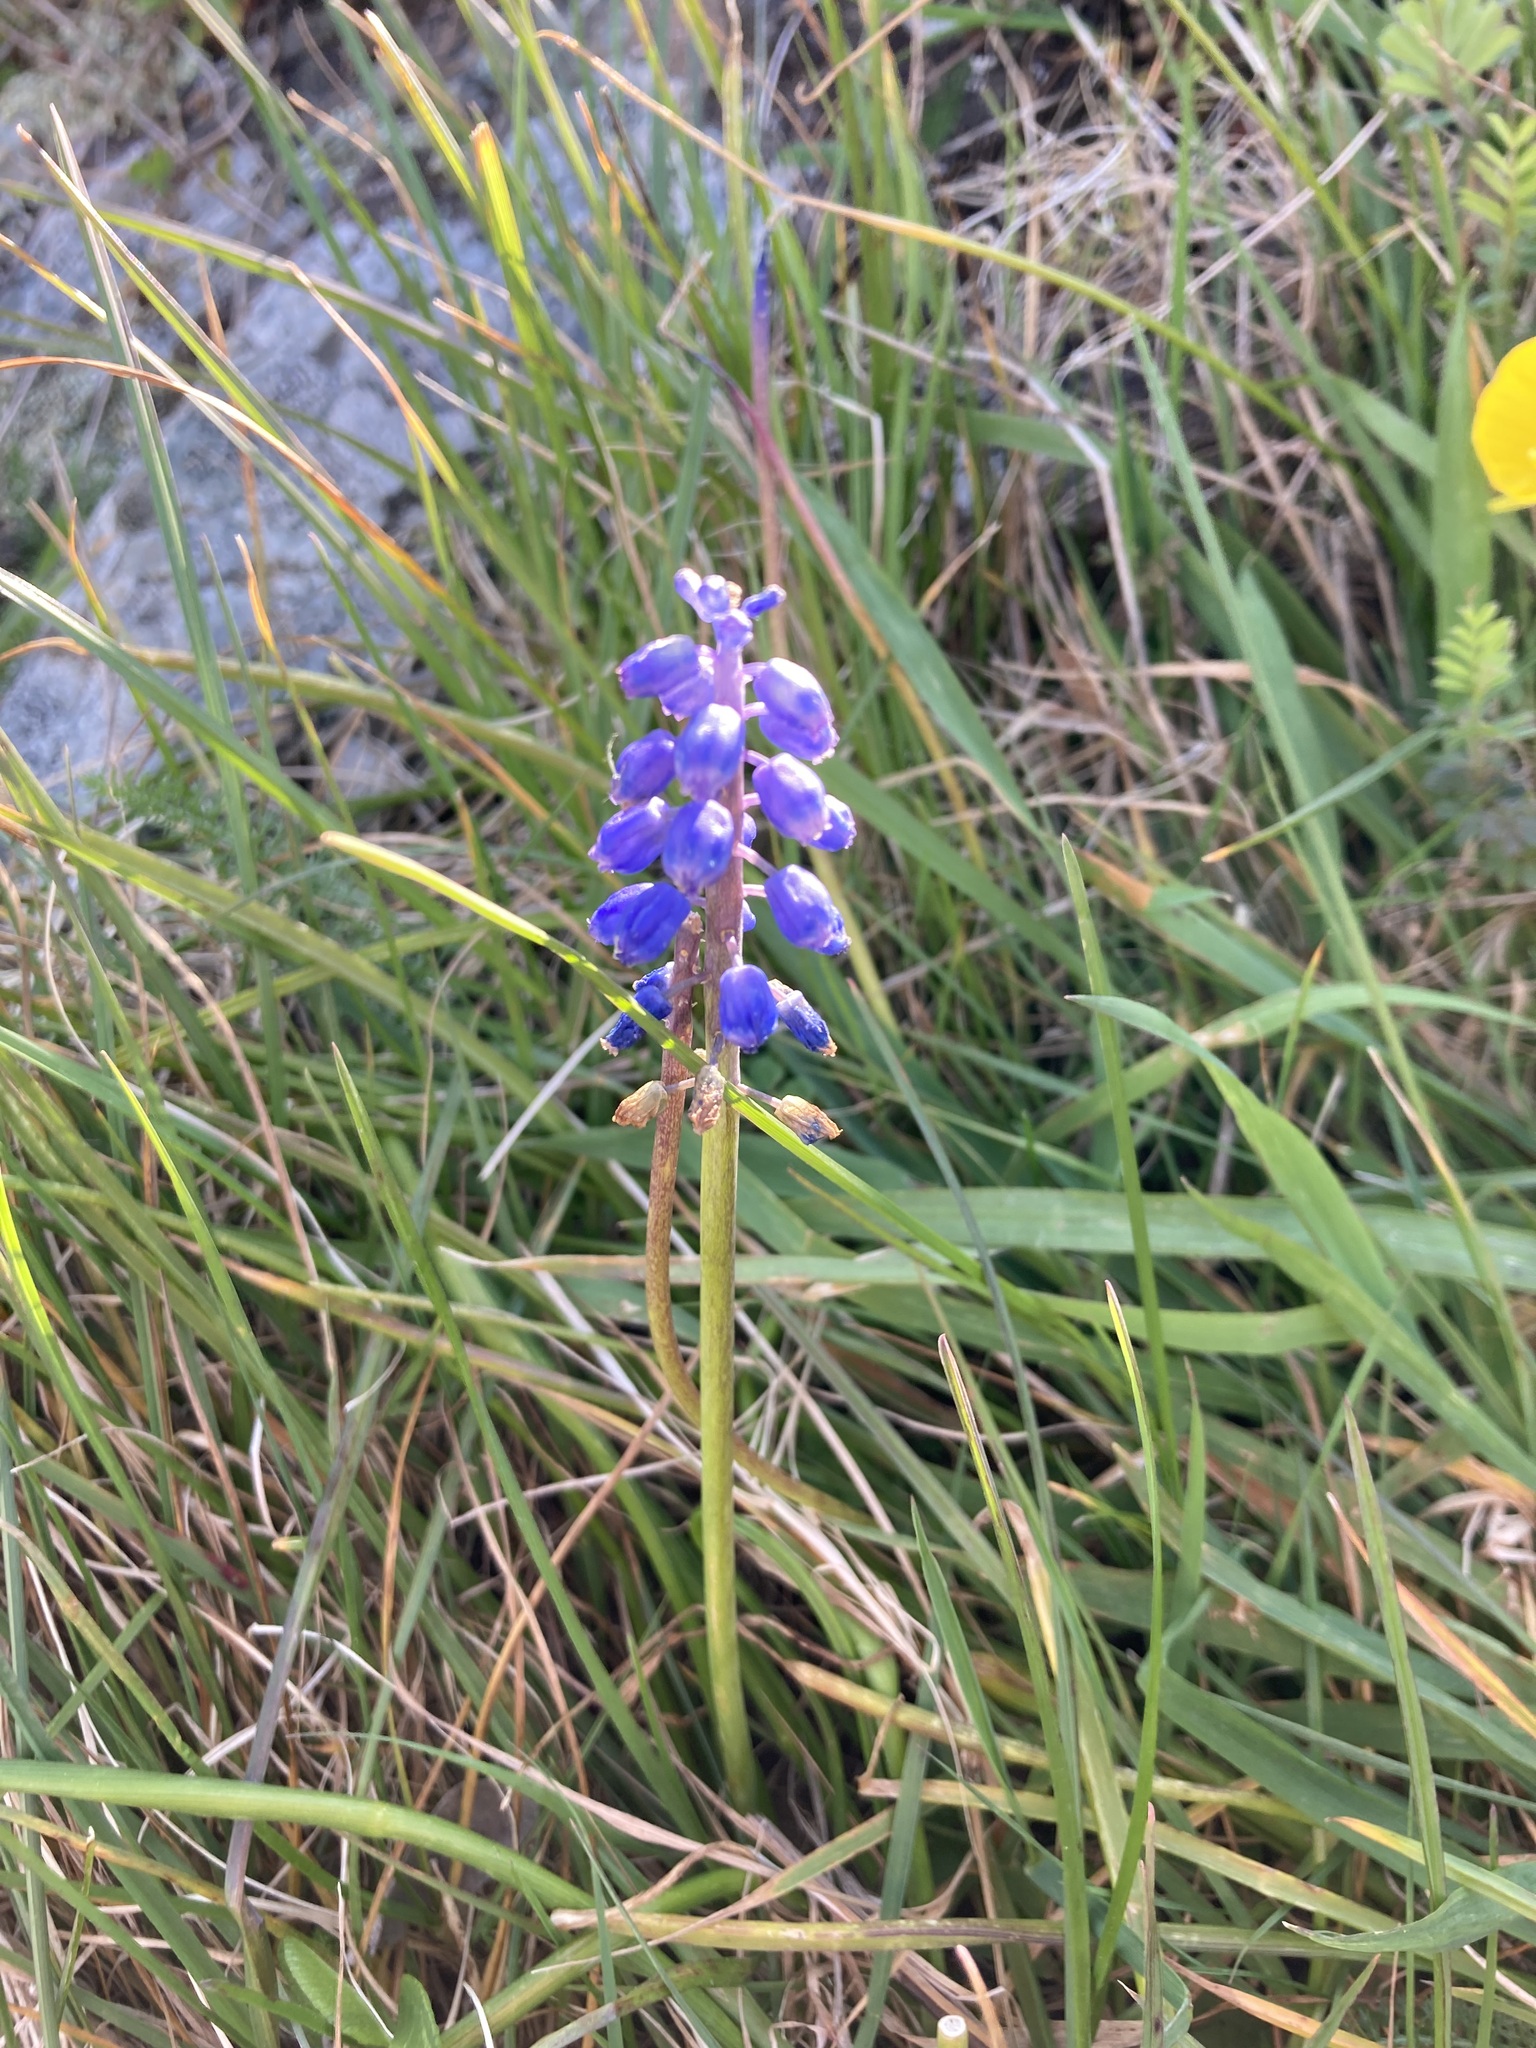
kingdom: Plantae
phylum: Tracheophyta
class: Liliopsida
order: Asparagales
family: Asparagaceae
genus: Muscari
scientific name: Muscari armeniacum
